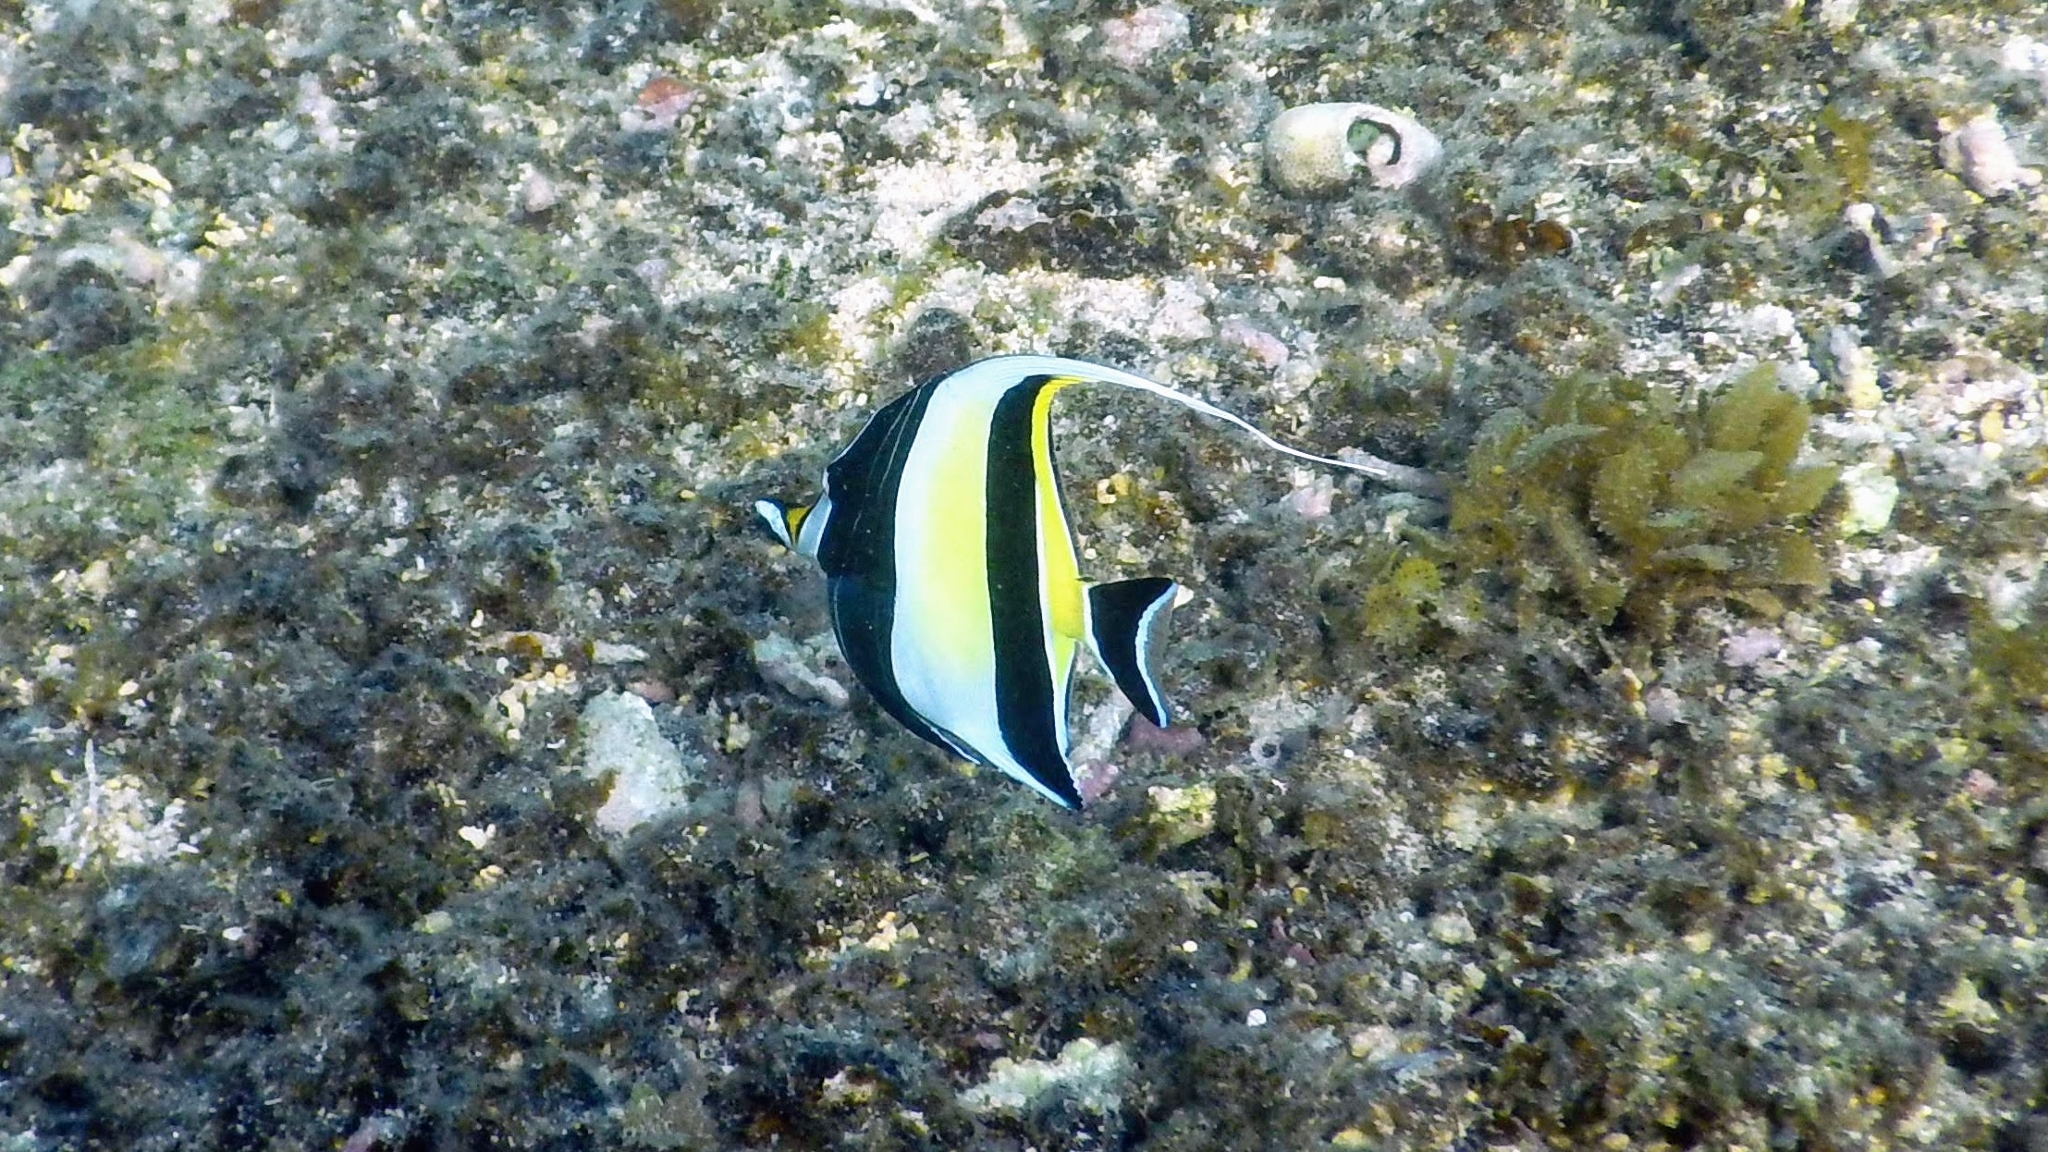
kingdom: Animalia
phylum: Chordata
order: Perciformes
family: Zanclidae
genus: Zanclus
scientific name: Zanclus cornutus
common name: Moorish idol
